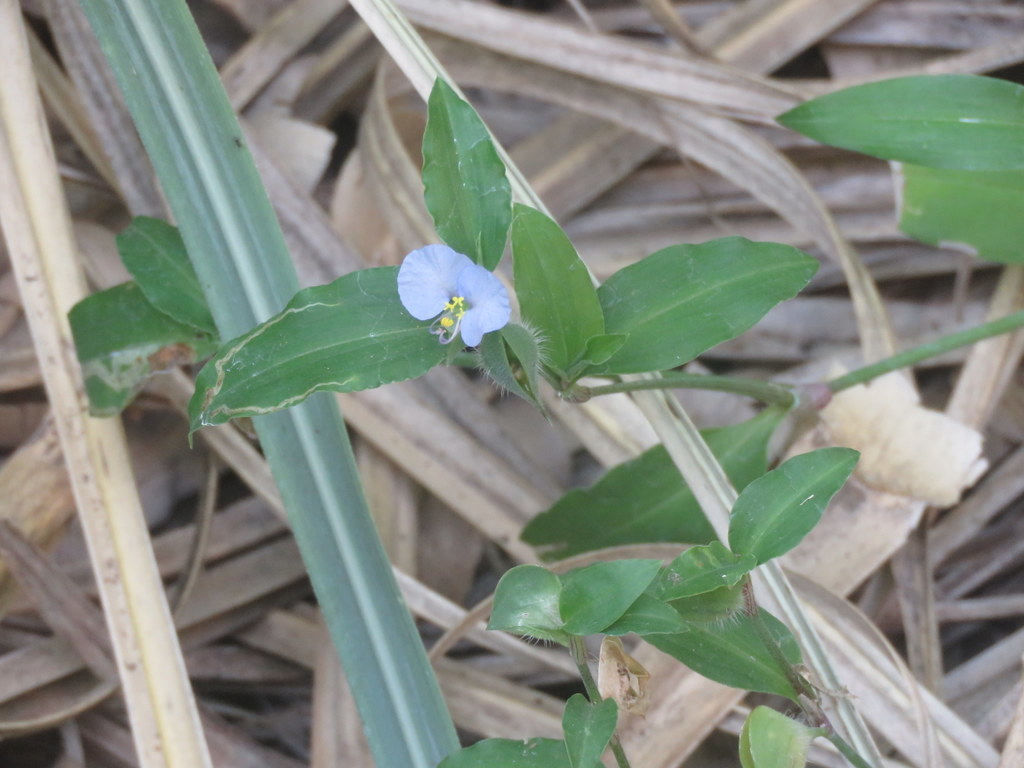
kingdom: Plantae
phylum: Tracheophyta
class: Liliopsida
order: Commelinales
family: Commelinaceae
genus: Commelina
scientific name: Commelina erecta
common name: Blousel blommetjie
